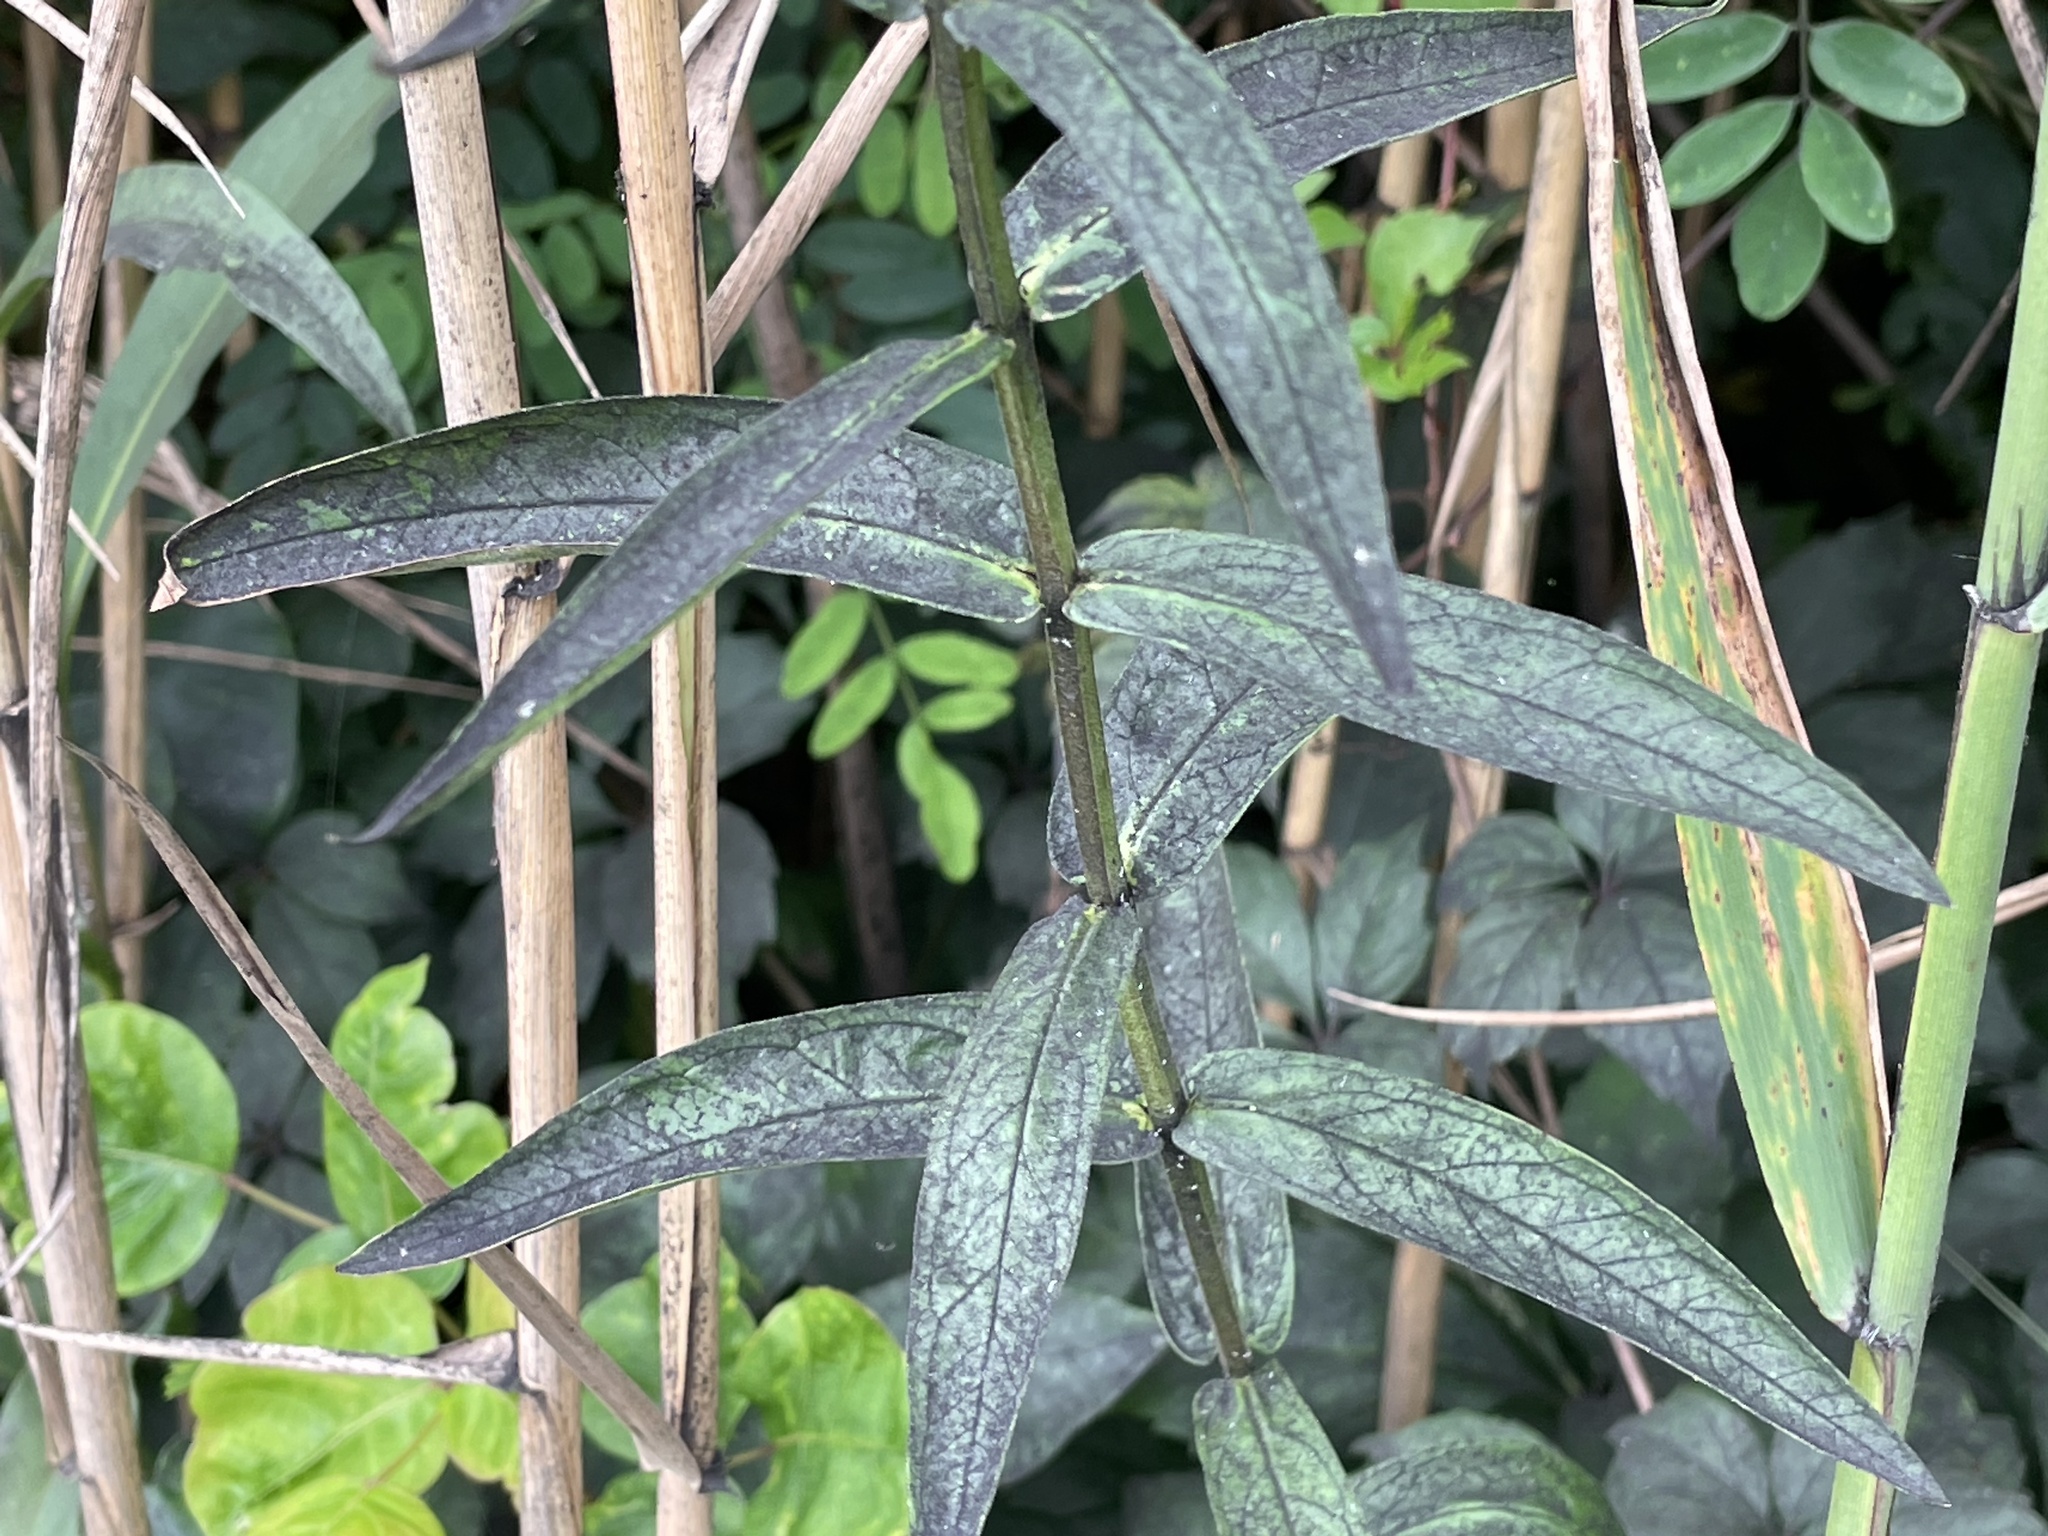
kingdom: Plantae
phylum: Tracheophyta
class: Magnoliopsida
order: Myrtales
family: Lythraceae
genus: Lythrum
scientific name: Lythrum salicaria
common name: Purple loosestrife
